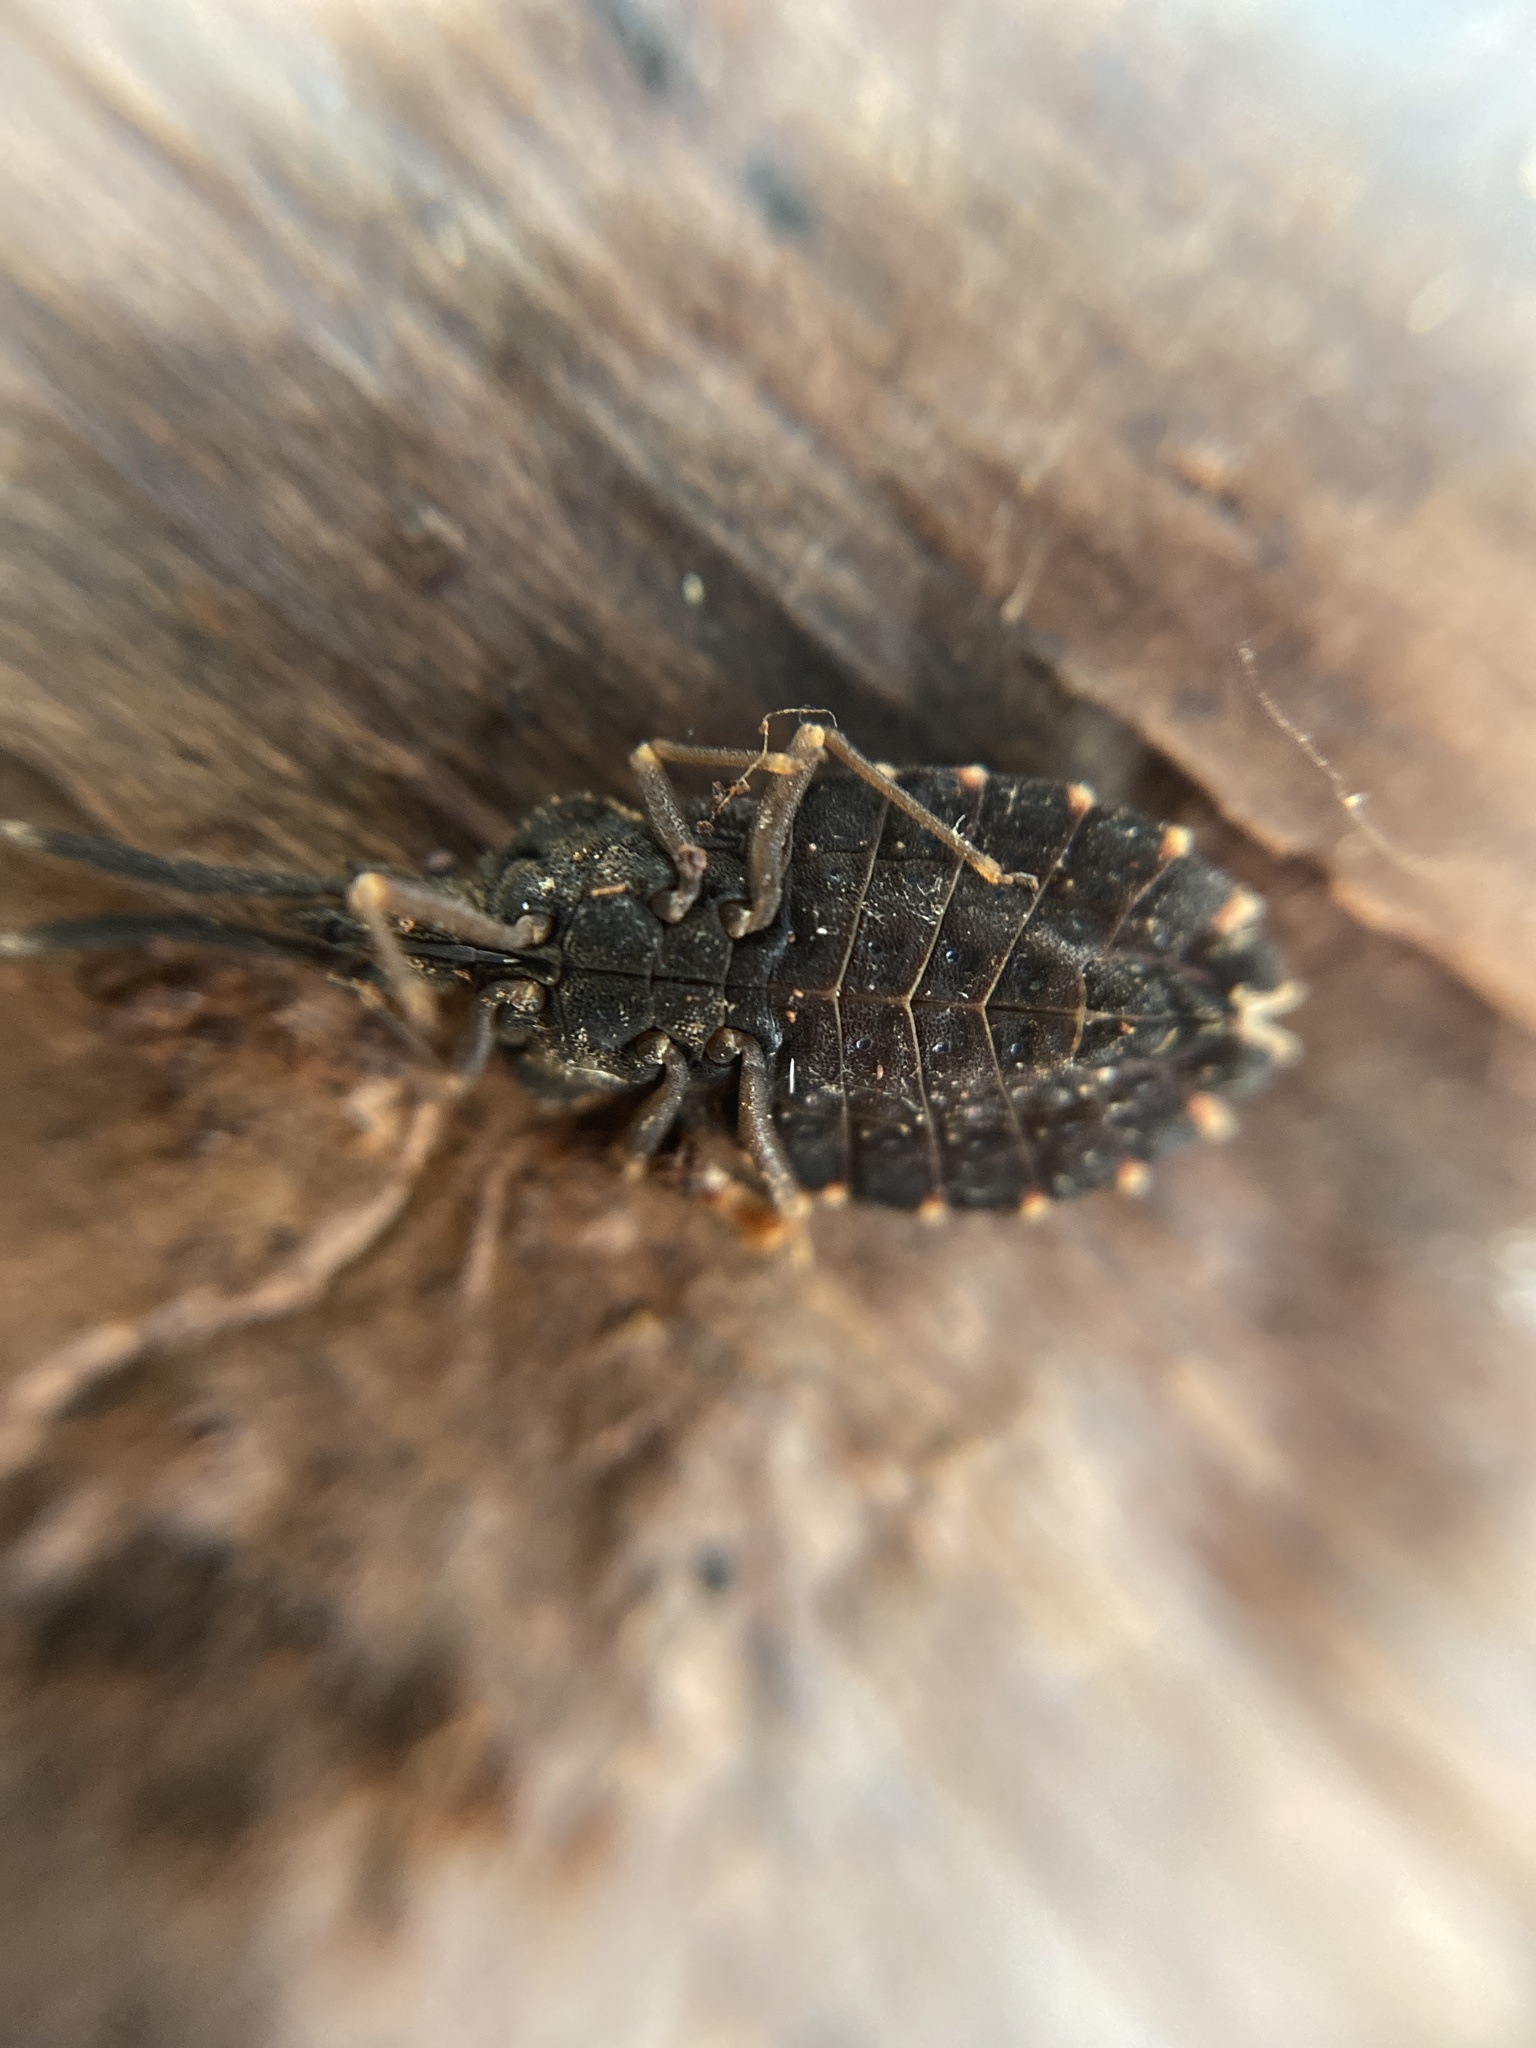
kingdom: Animalia
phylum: Arthropoda
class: Insecta
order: Hemiptera
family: Aradidae
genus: Aradus
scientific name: Aradus betulinus
